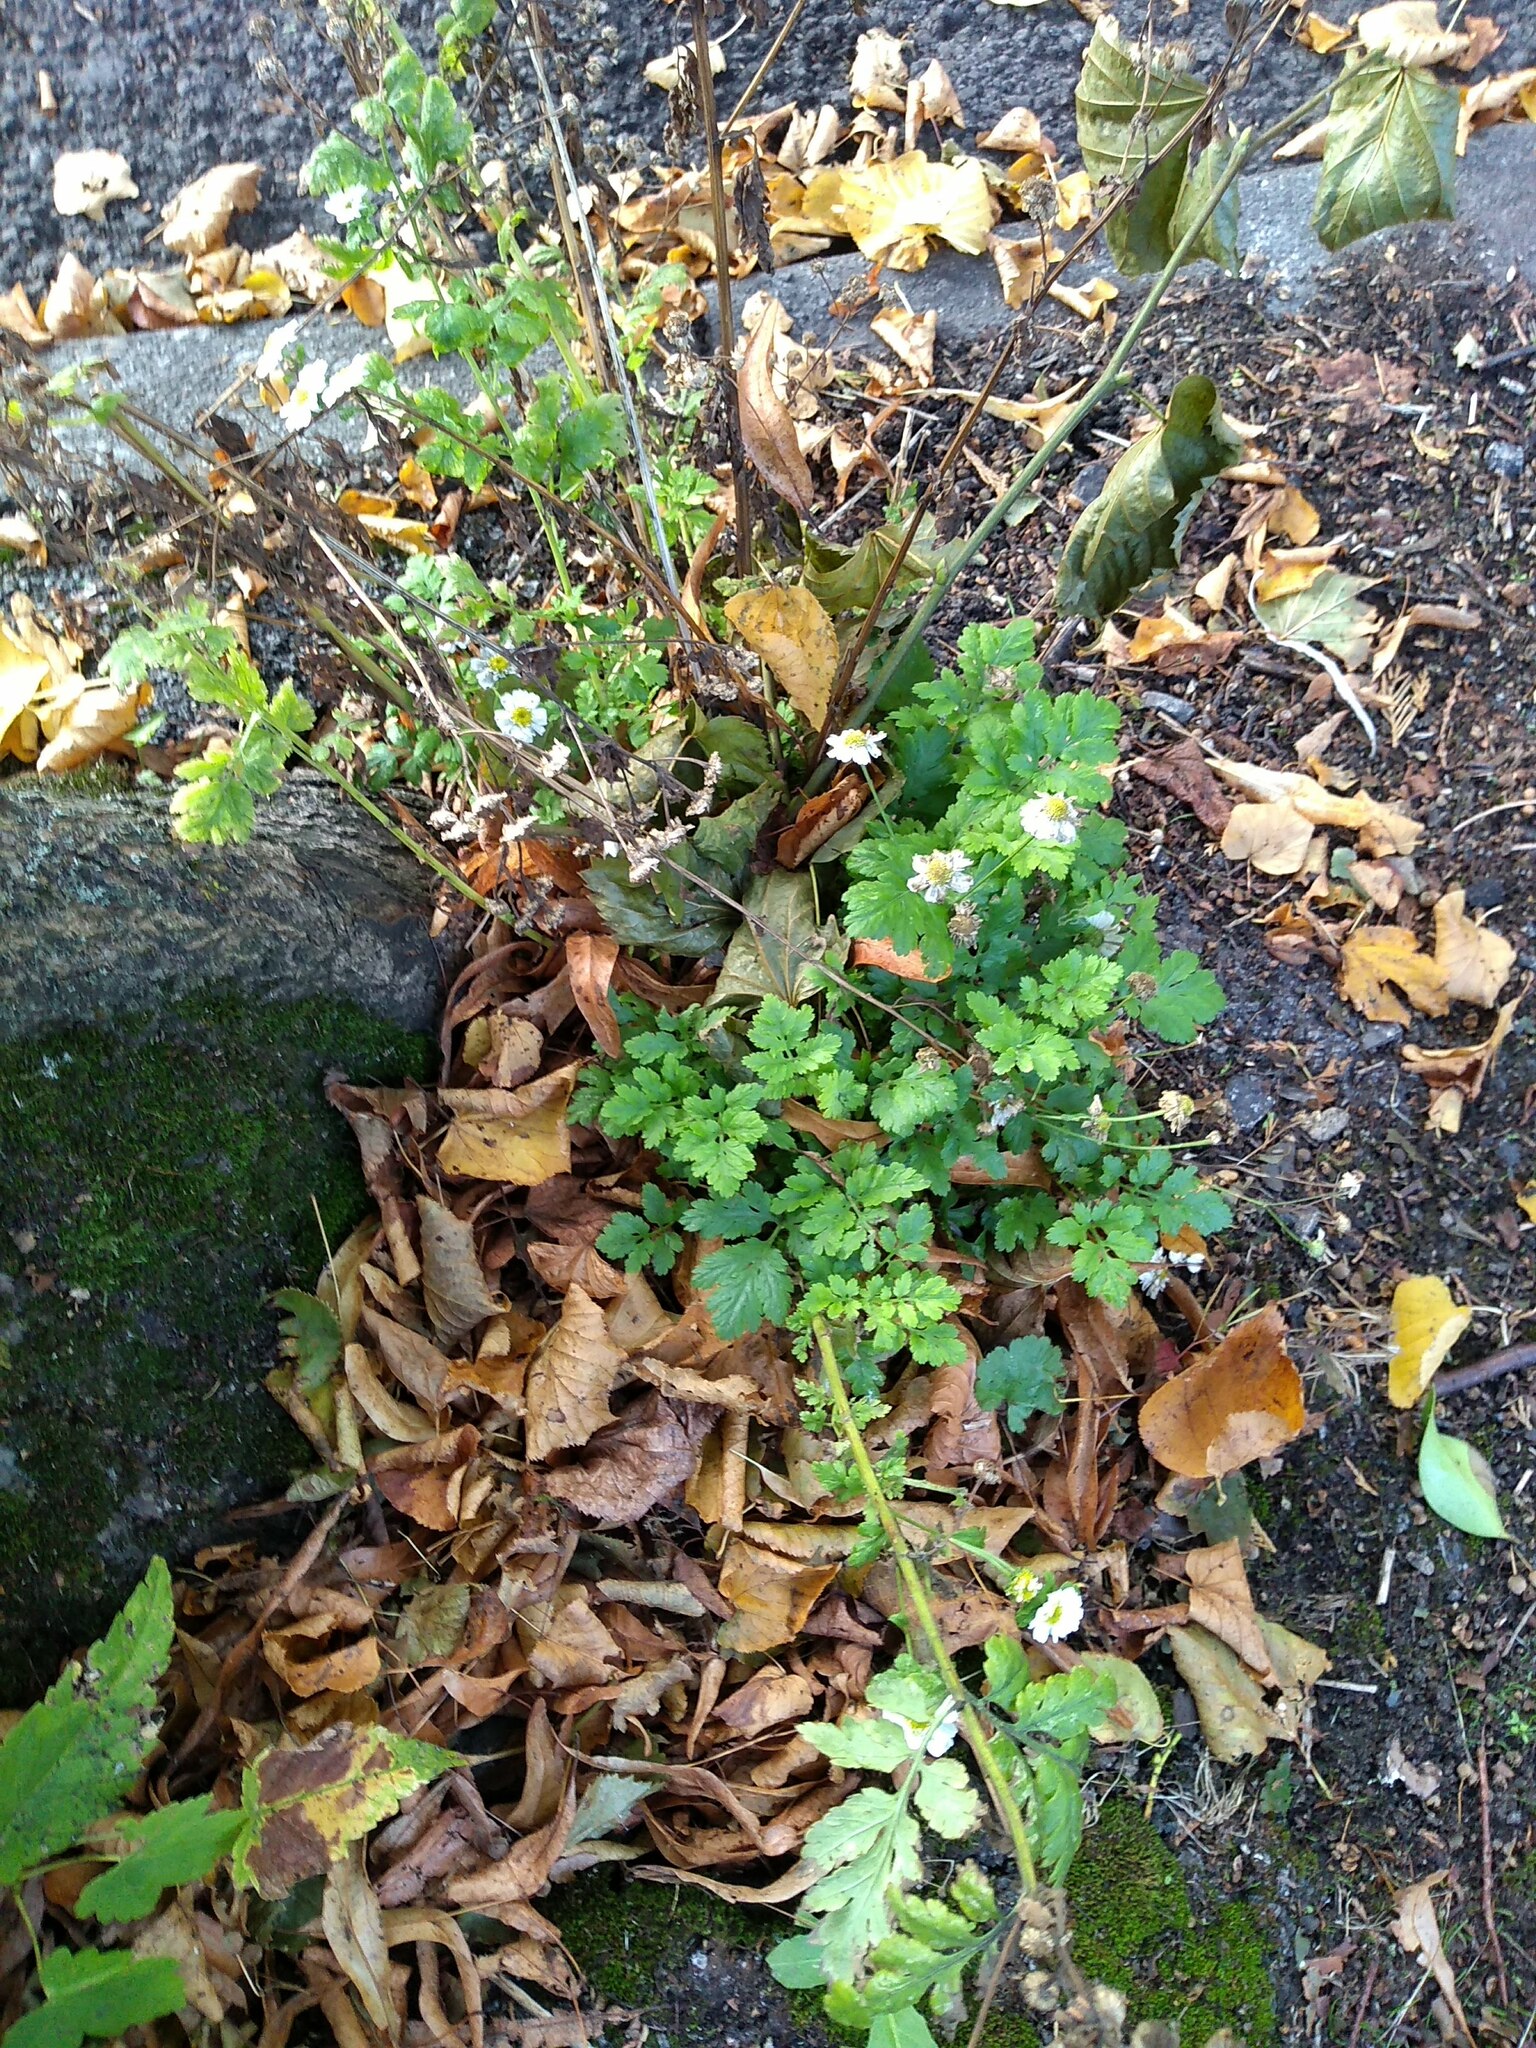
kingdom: Plantae
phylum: Tracheophyta
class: Magnoliopsida
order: Asterales
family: Asteraceae
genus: Tanacetum
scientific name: Tanacetum parthenium
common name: Feverfew
